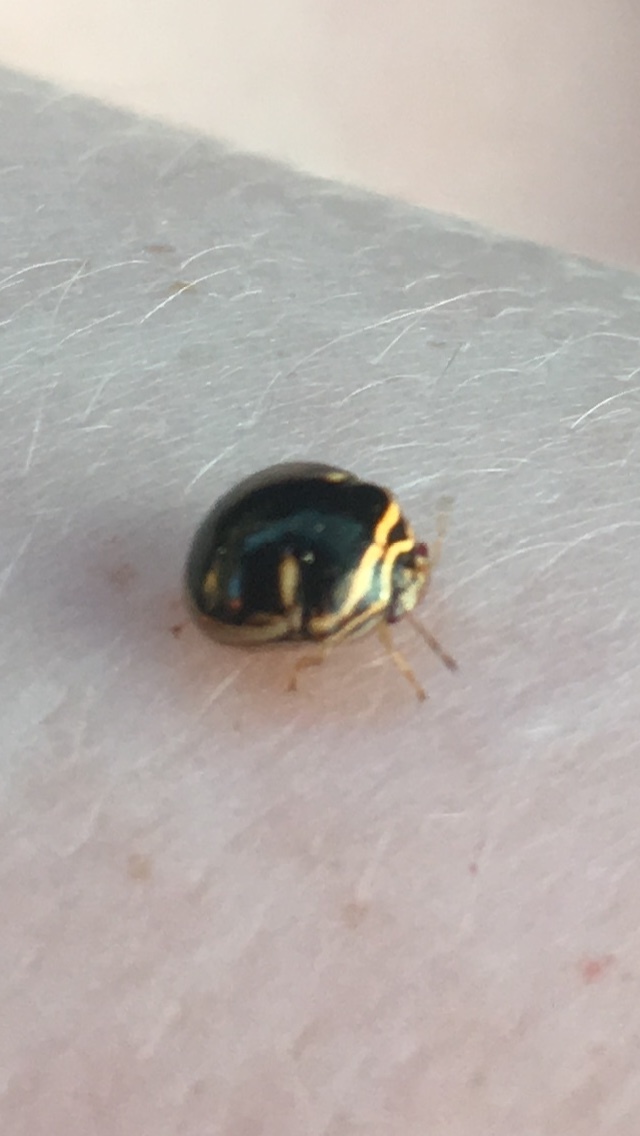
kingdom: Animalia
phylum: Arthropoda
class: Insecta
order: Hemiptera
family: Plataspidae
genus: Coptosoma
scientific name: Coptosoma
